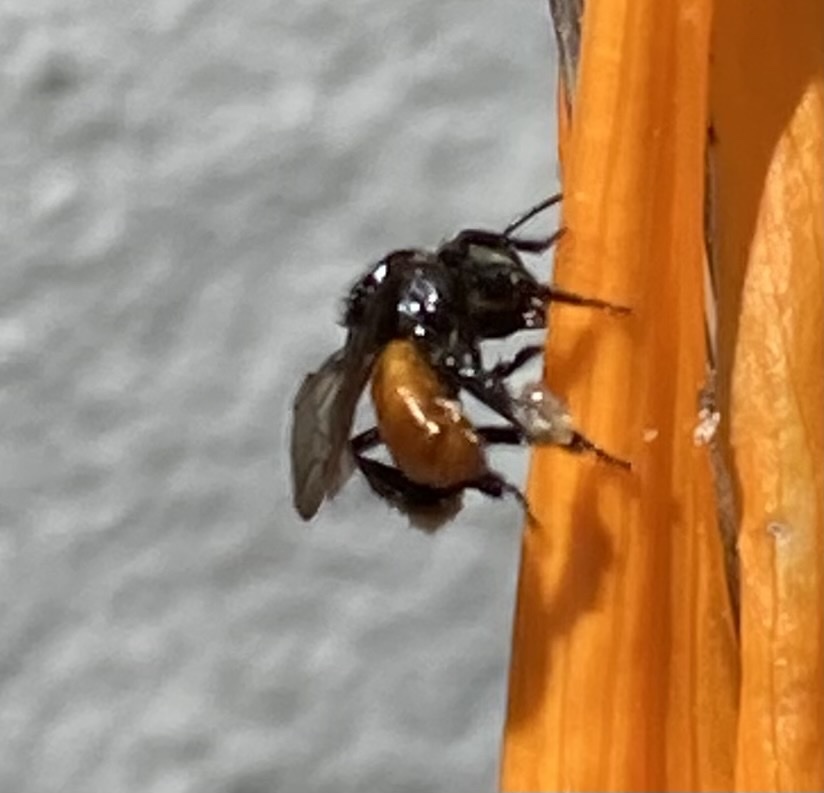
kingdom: Animalia
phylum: Arthropoda
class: Insecta
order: Hymenoptera
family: Apidae
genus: Trigona
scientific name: Trigona fulviventris
